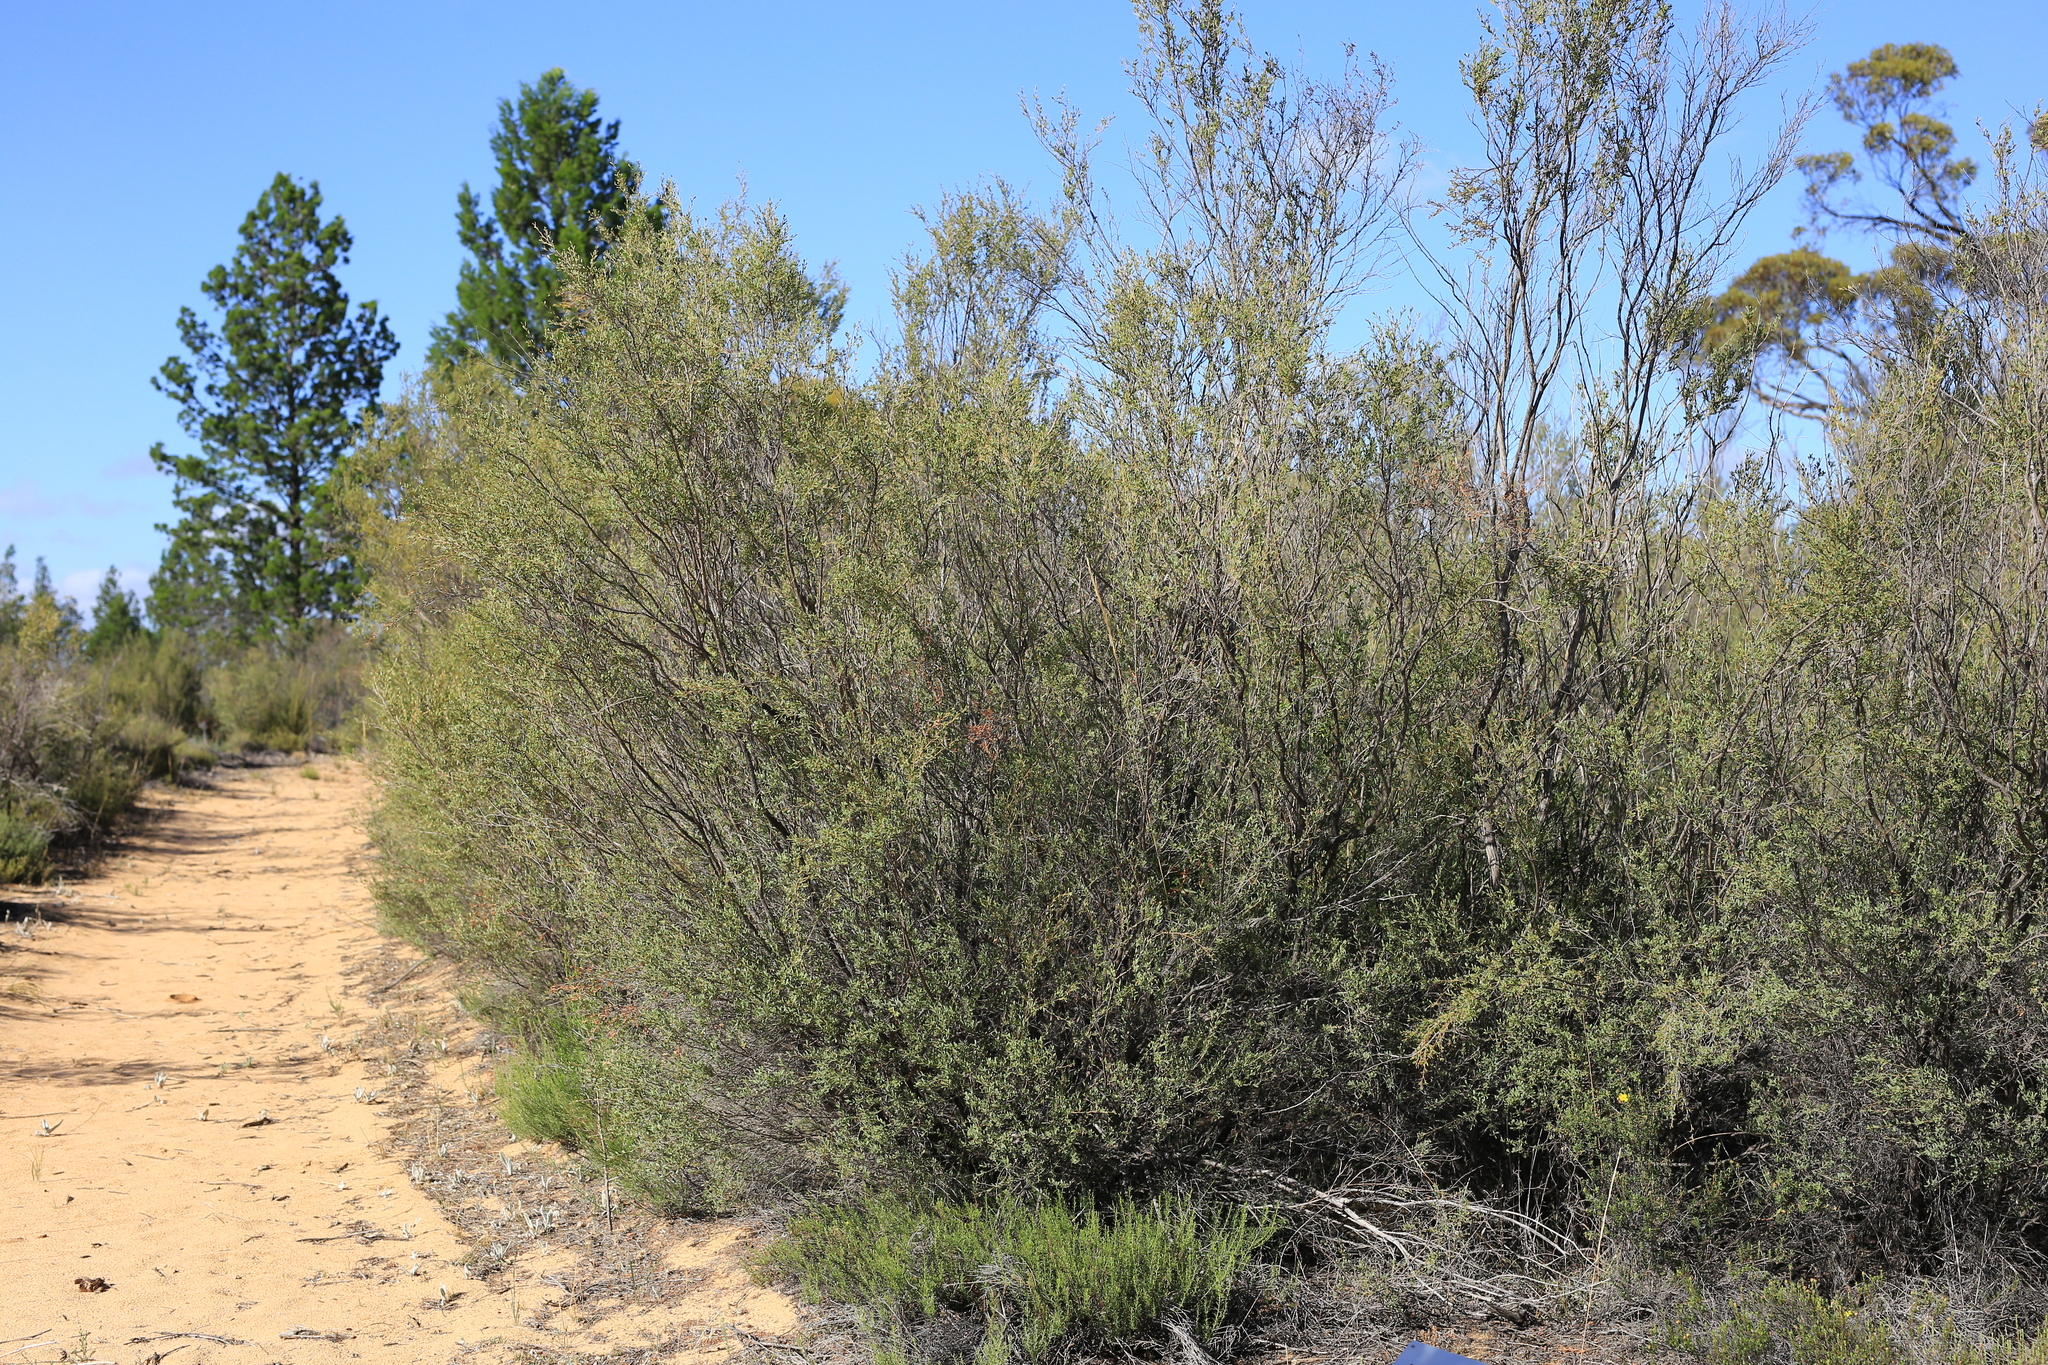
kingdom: Plantae
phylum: Tracheophyta
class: Magnoliopsida
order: Myrtales
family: Myrtaceae
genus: Leptospermum
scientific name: Leptospermum coriaceum
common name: Mallee teatree
